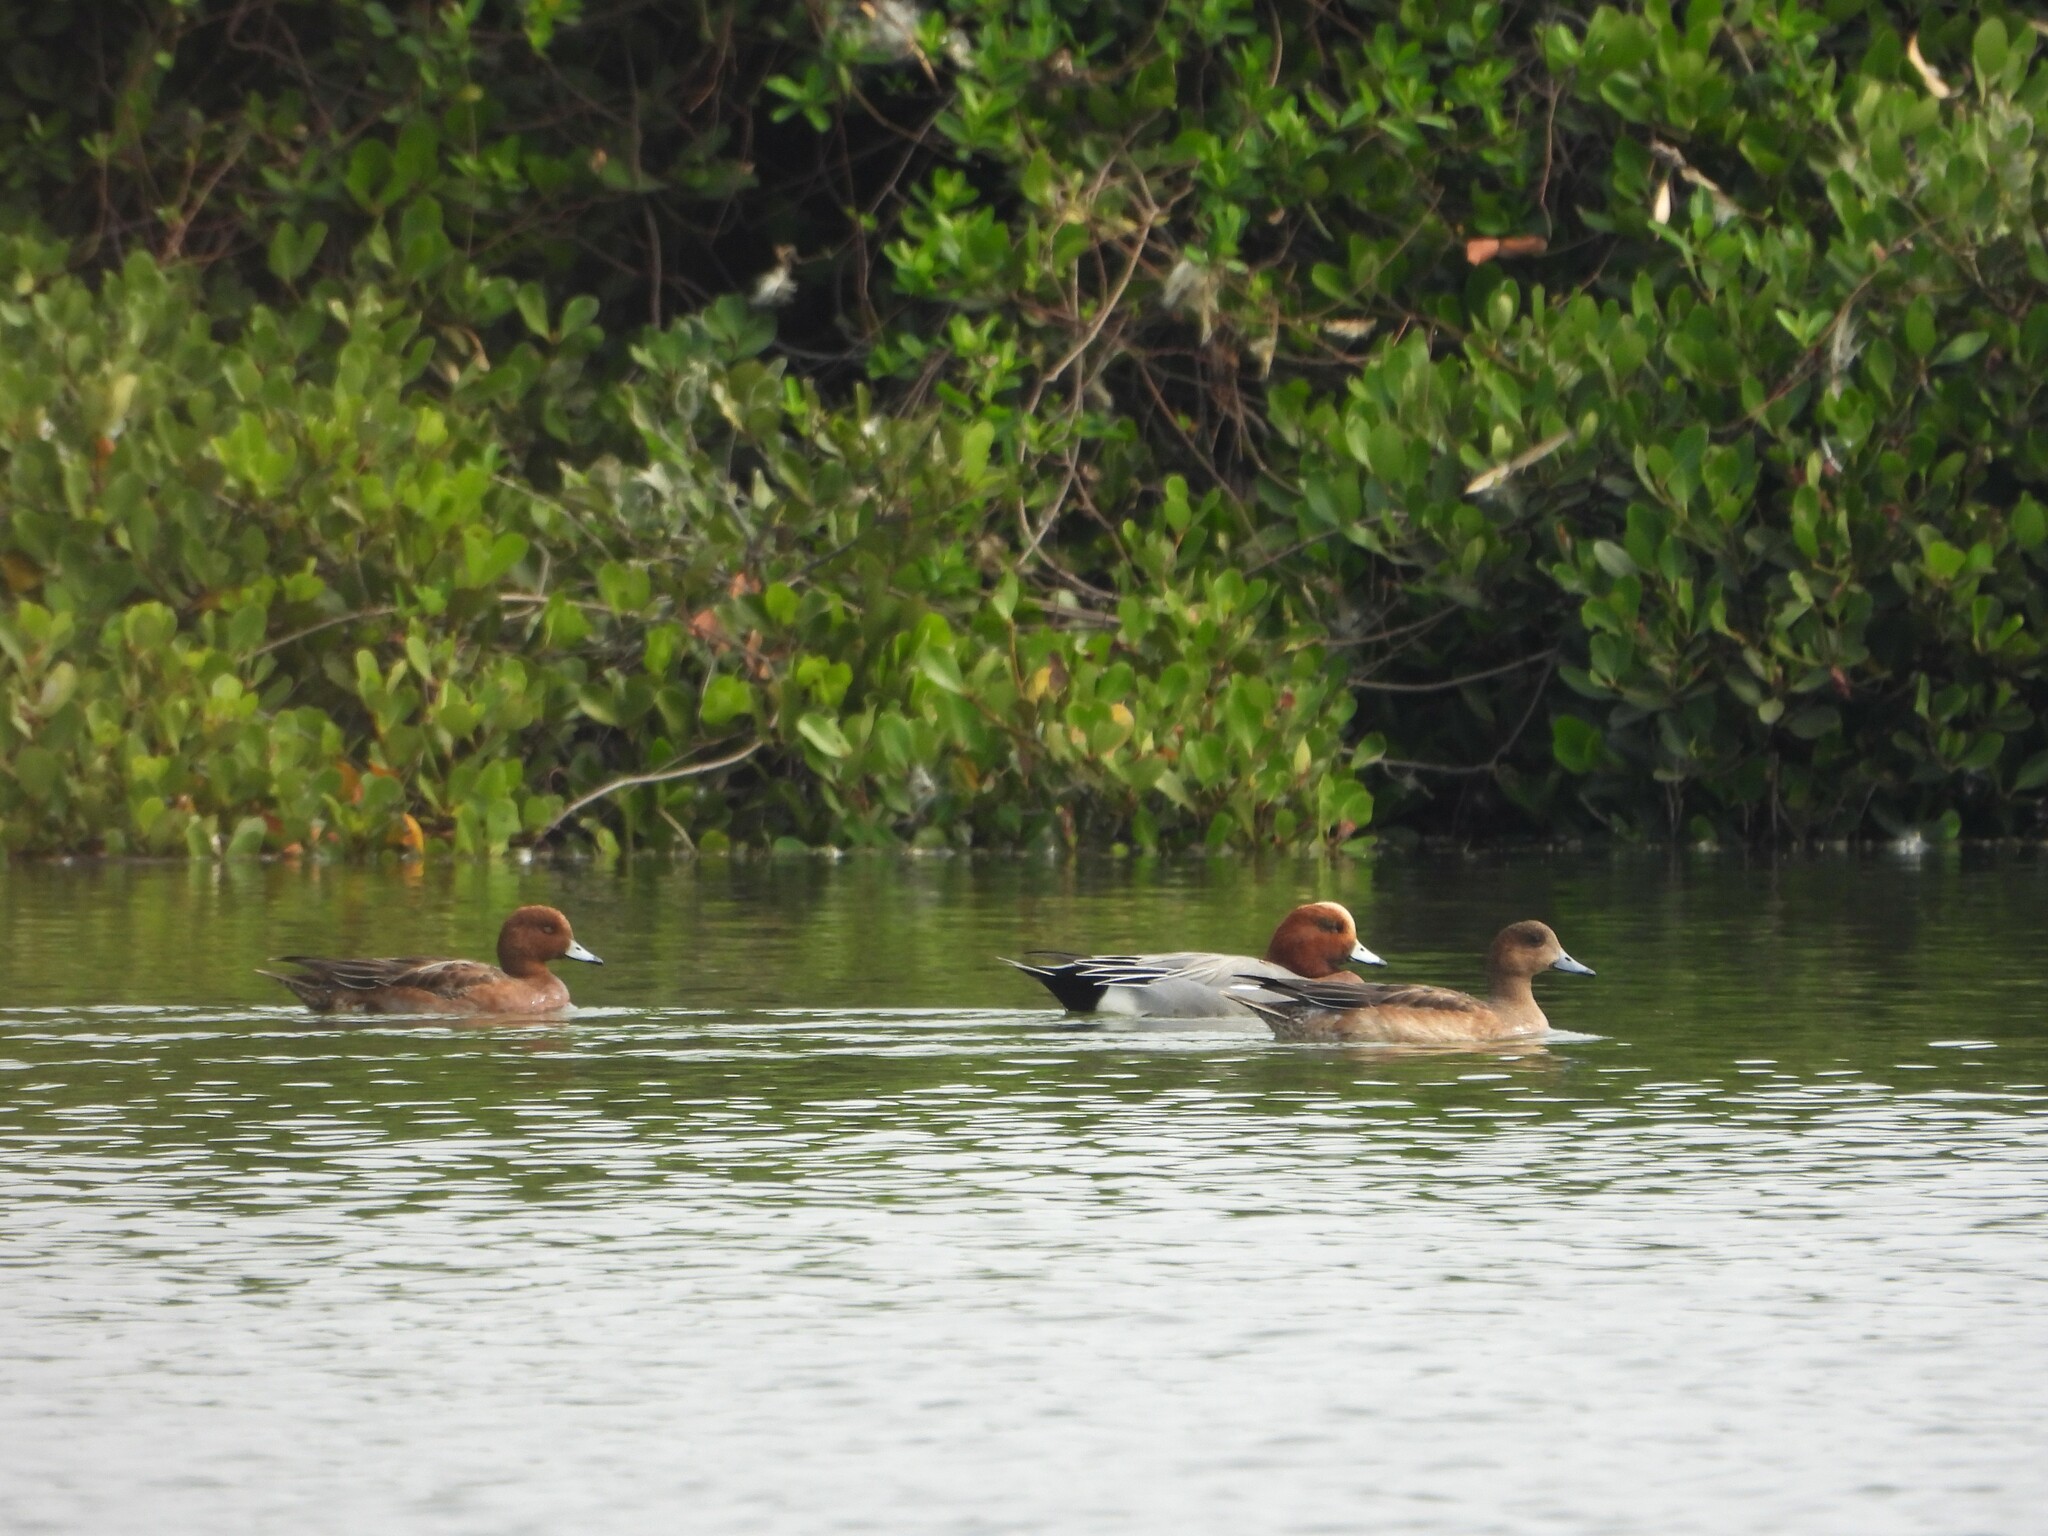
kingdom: Animalia
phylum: Chordata
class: Aves
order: Anseriformes
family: Anatidae
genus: Mareca
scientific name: Mareca penelope
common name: Eurasian wigeon
